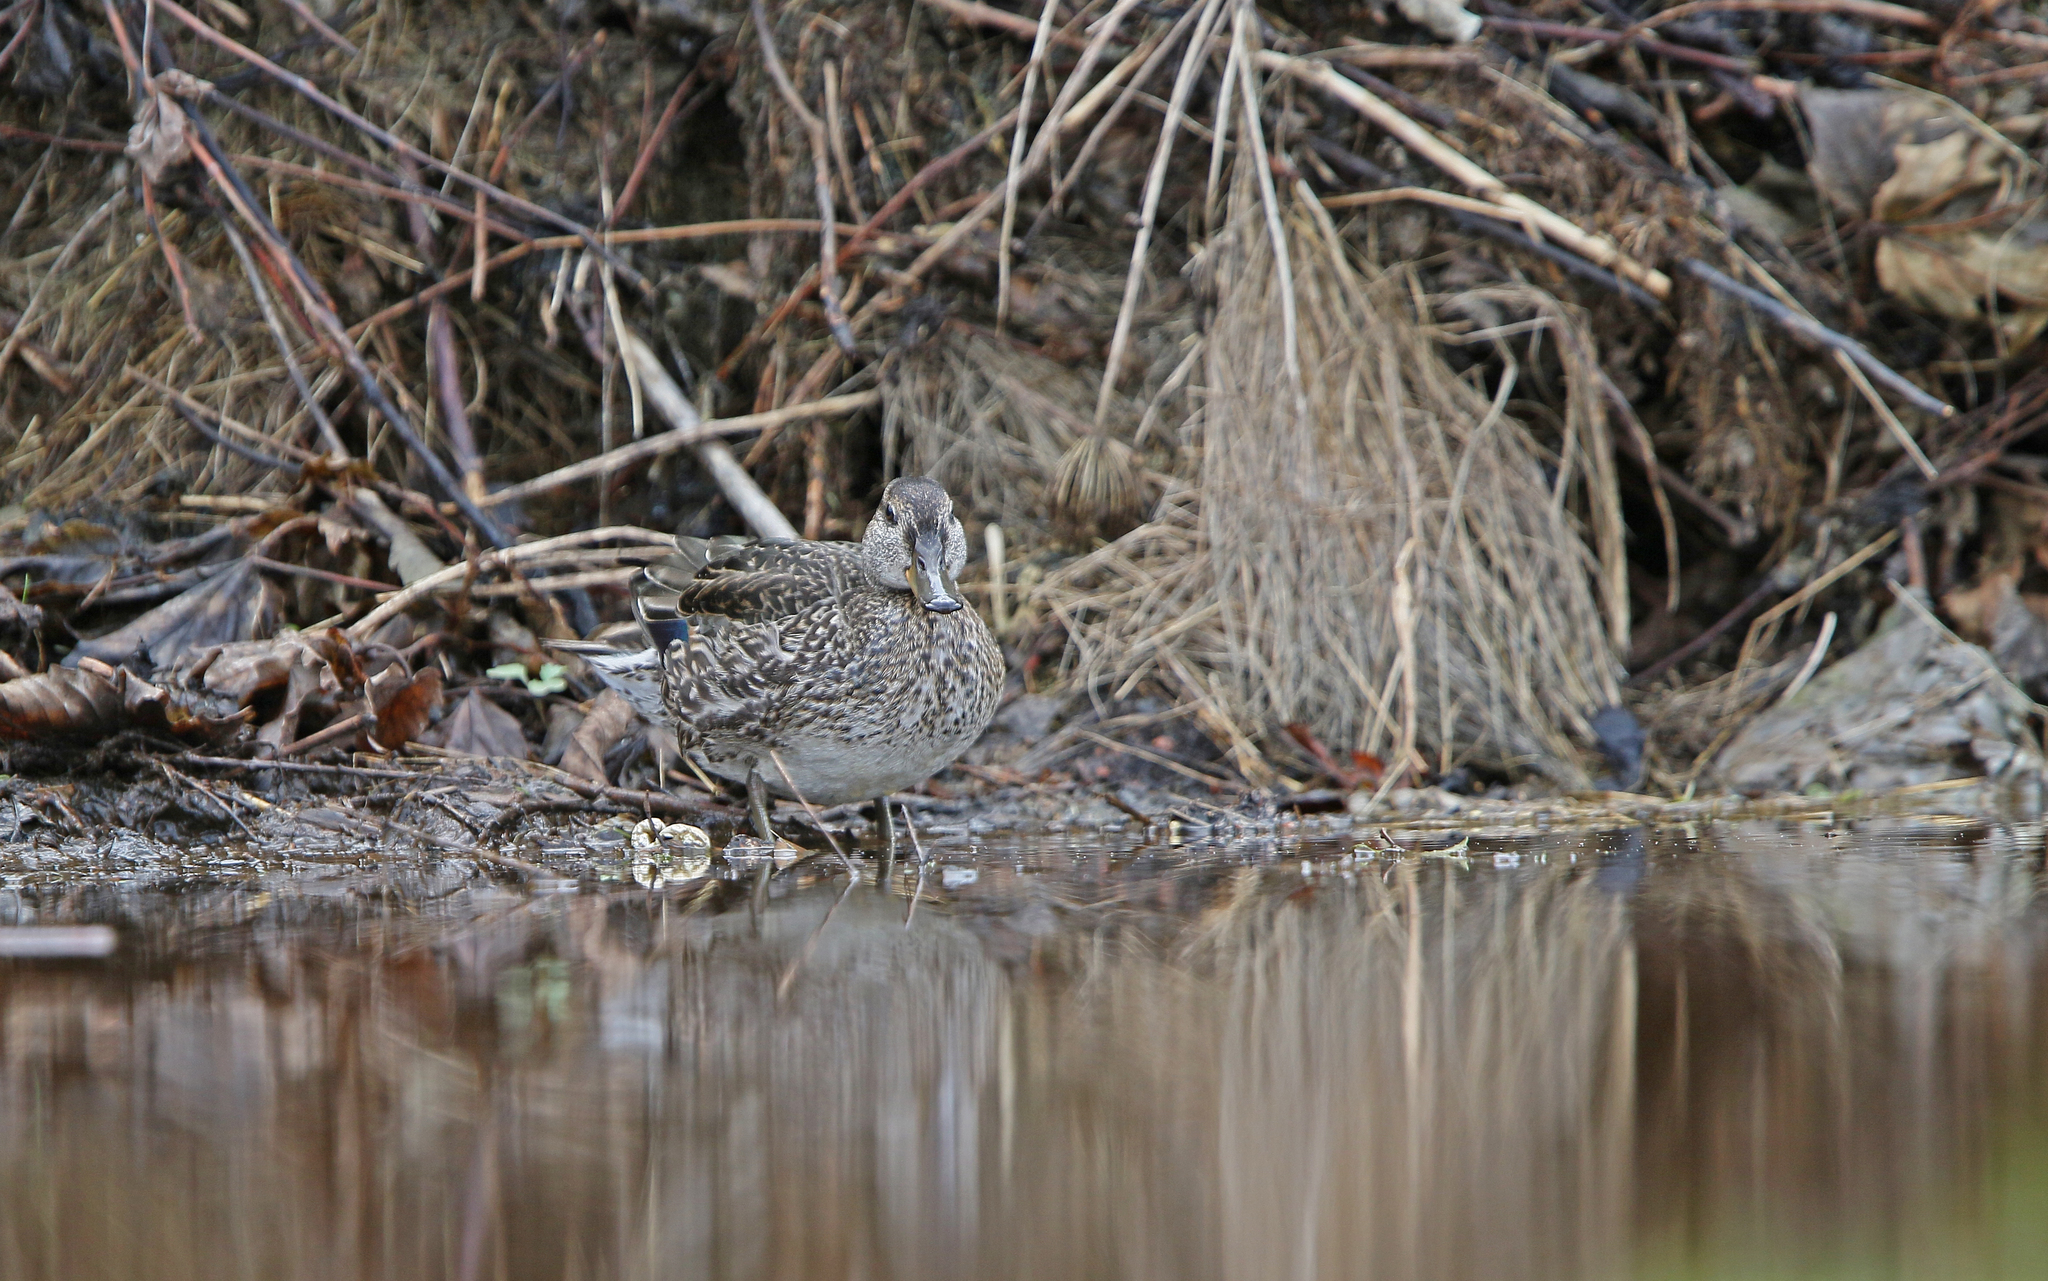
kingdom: Animalia
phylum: Chordata
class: Aves
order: Anseriformes
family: Anatidae
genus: Anas
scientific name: Anas crecca
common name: Eurasian teal
